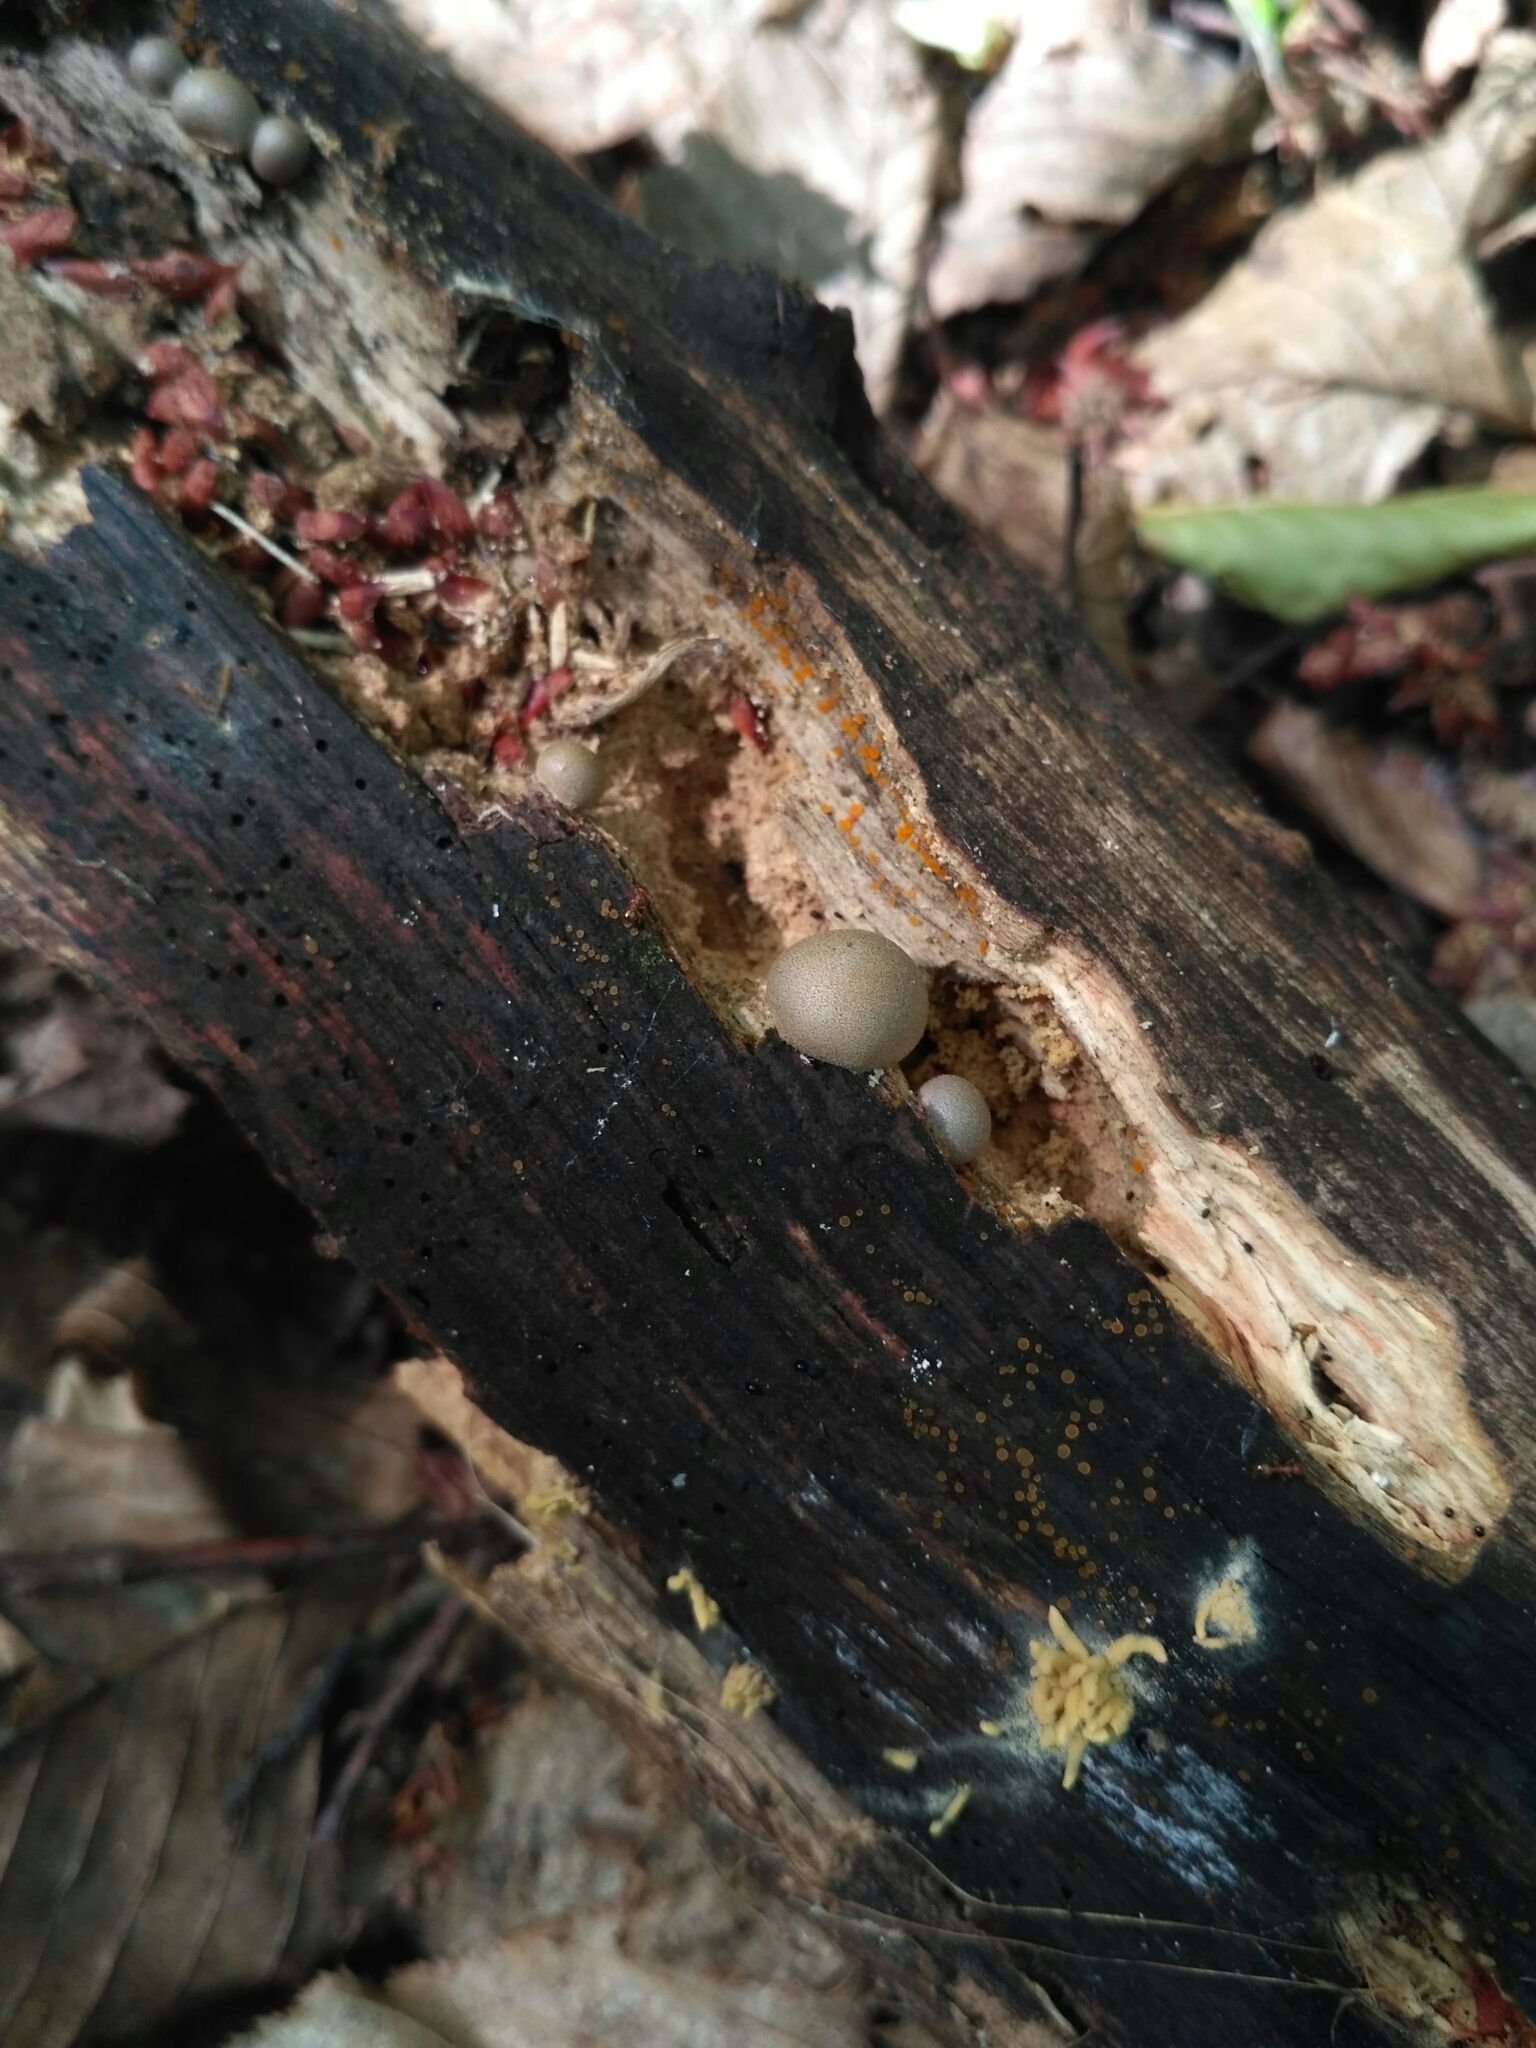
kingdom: Protozoa
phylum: Mycetozoa
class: Myxomycetes
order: Cribrariales
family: Tubiferaceae
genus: Lycogala
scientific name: Lycogala epidendrum
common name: Wolf's milk
